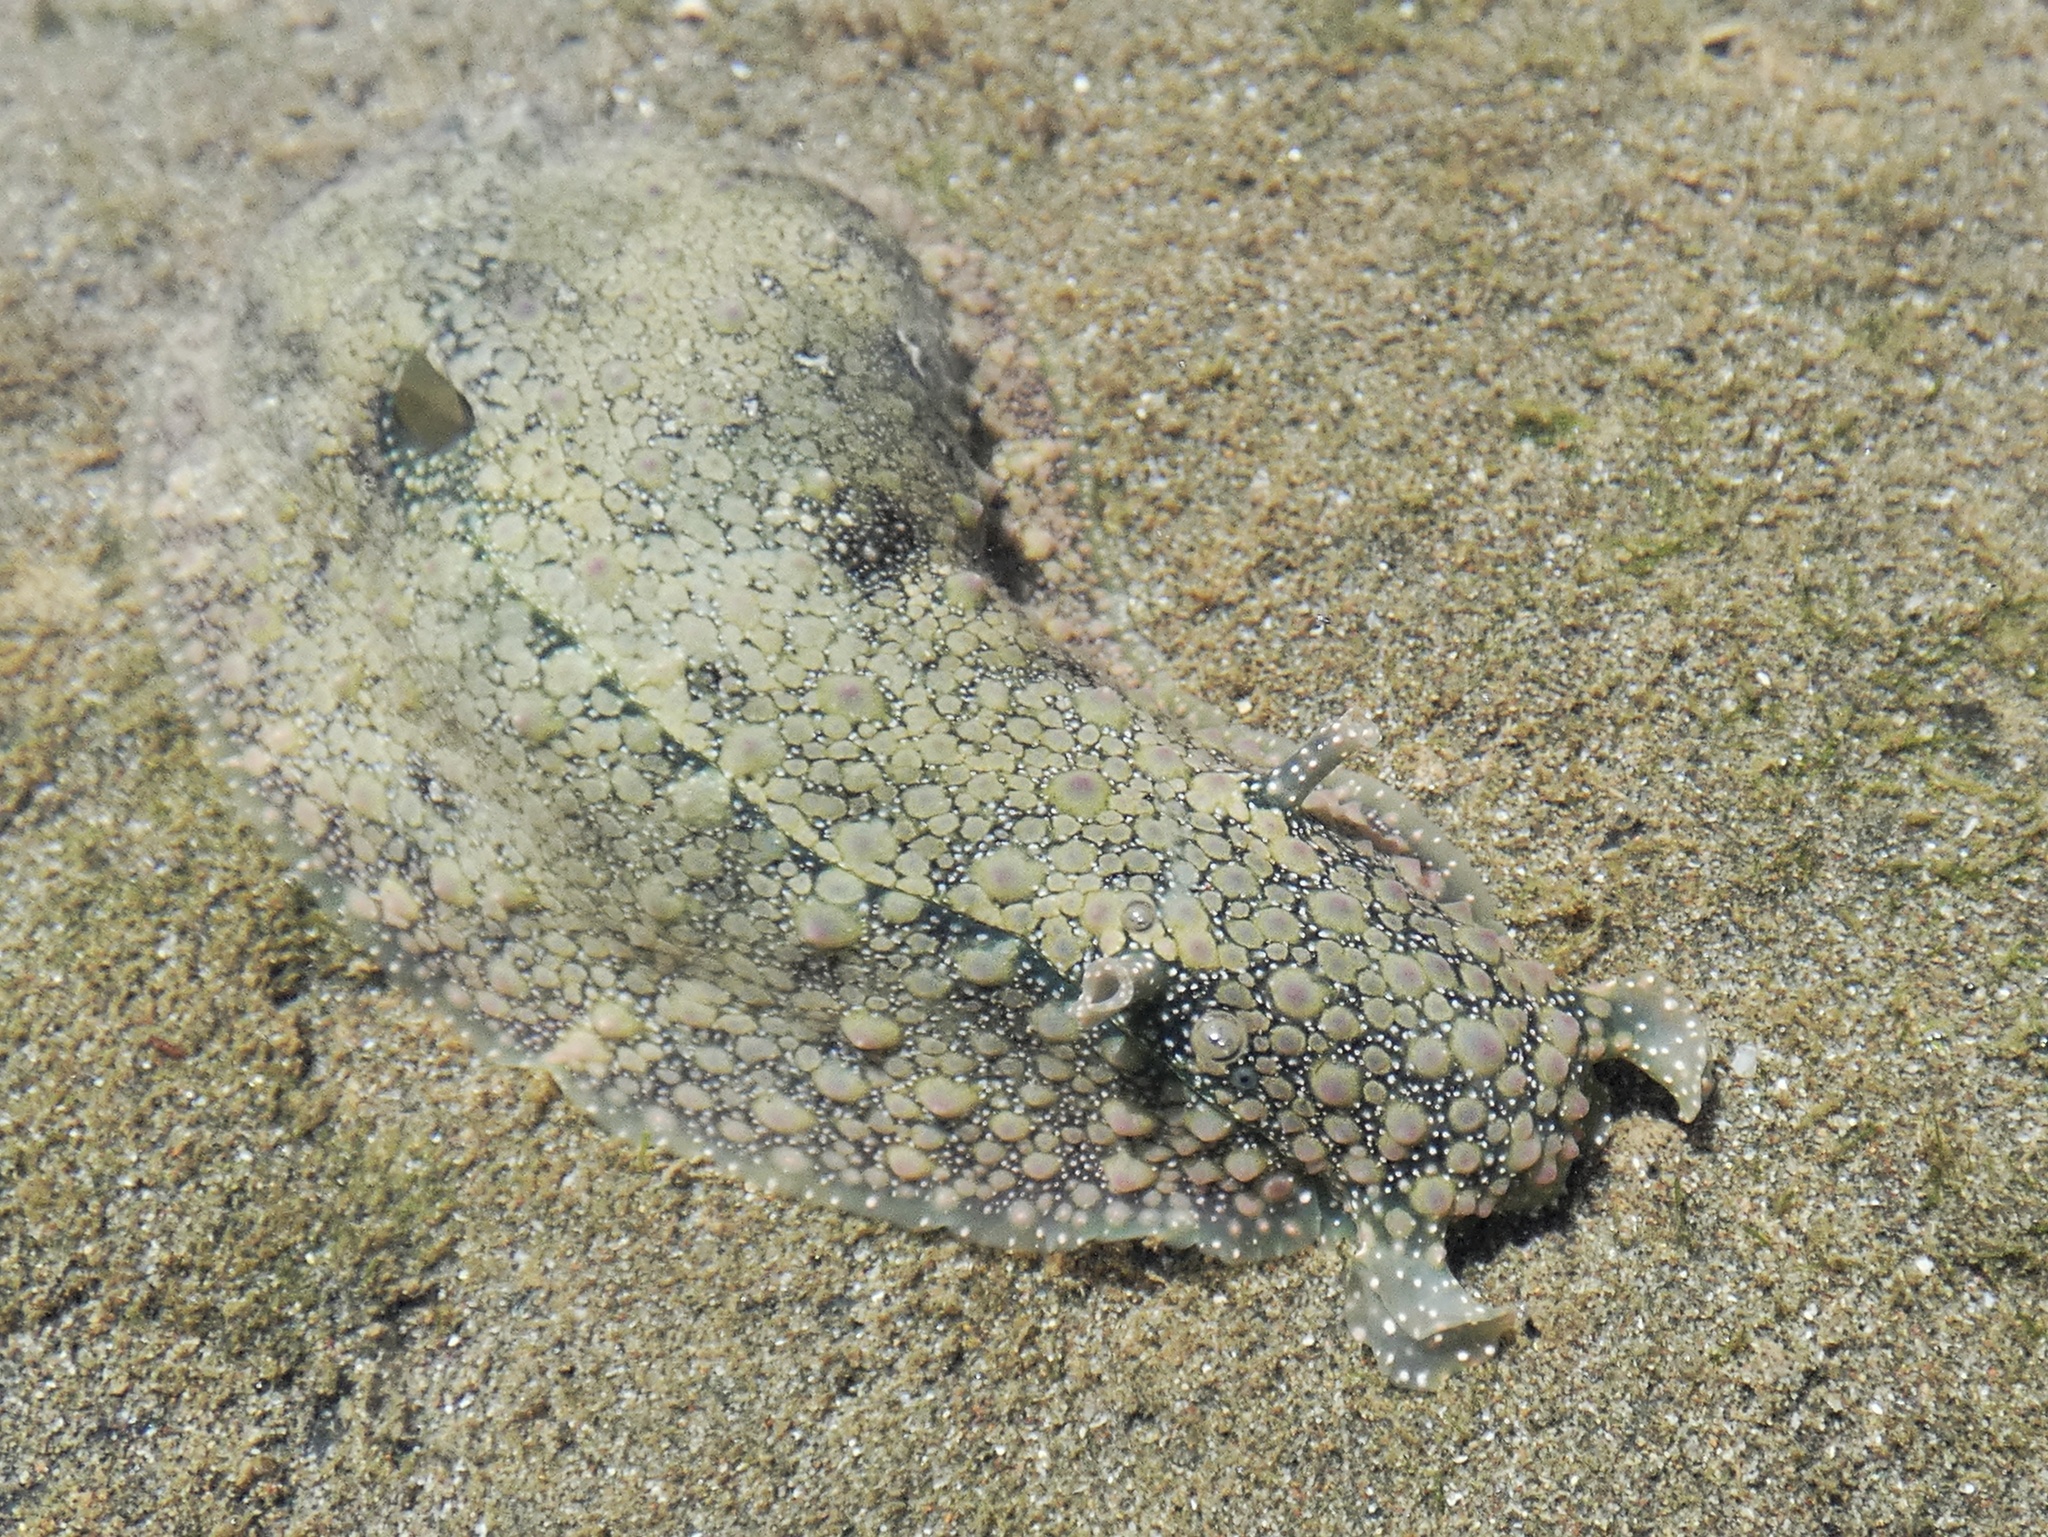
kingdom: Animalia
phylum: Mollusca
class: Gastropoda
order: Aplysiida
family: Aplysiidae
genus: Dolabrifera
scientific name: Dolabrifera nicaraguana
